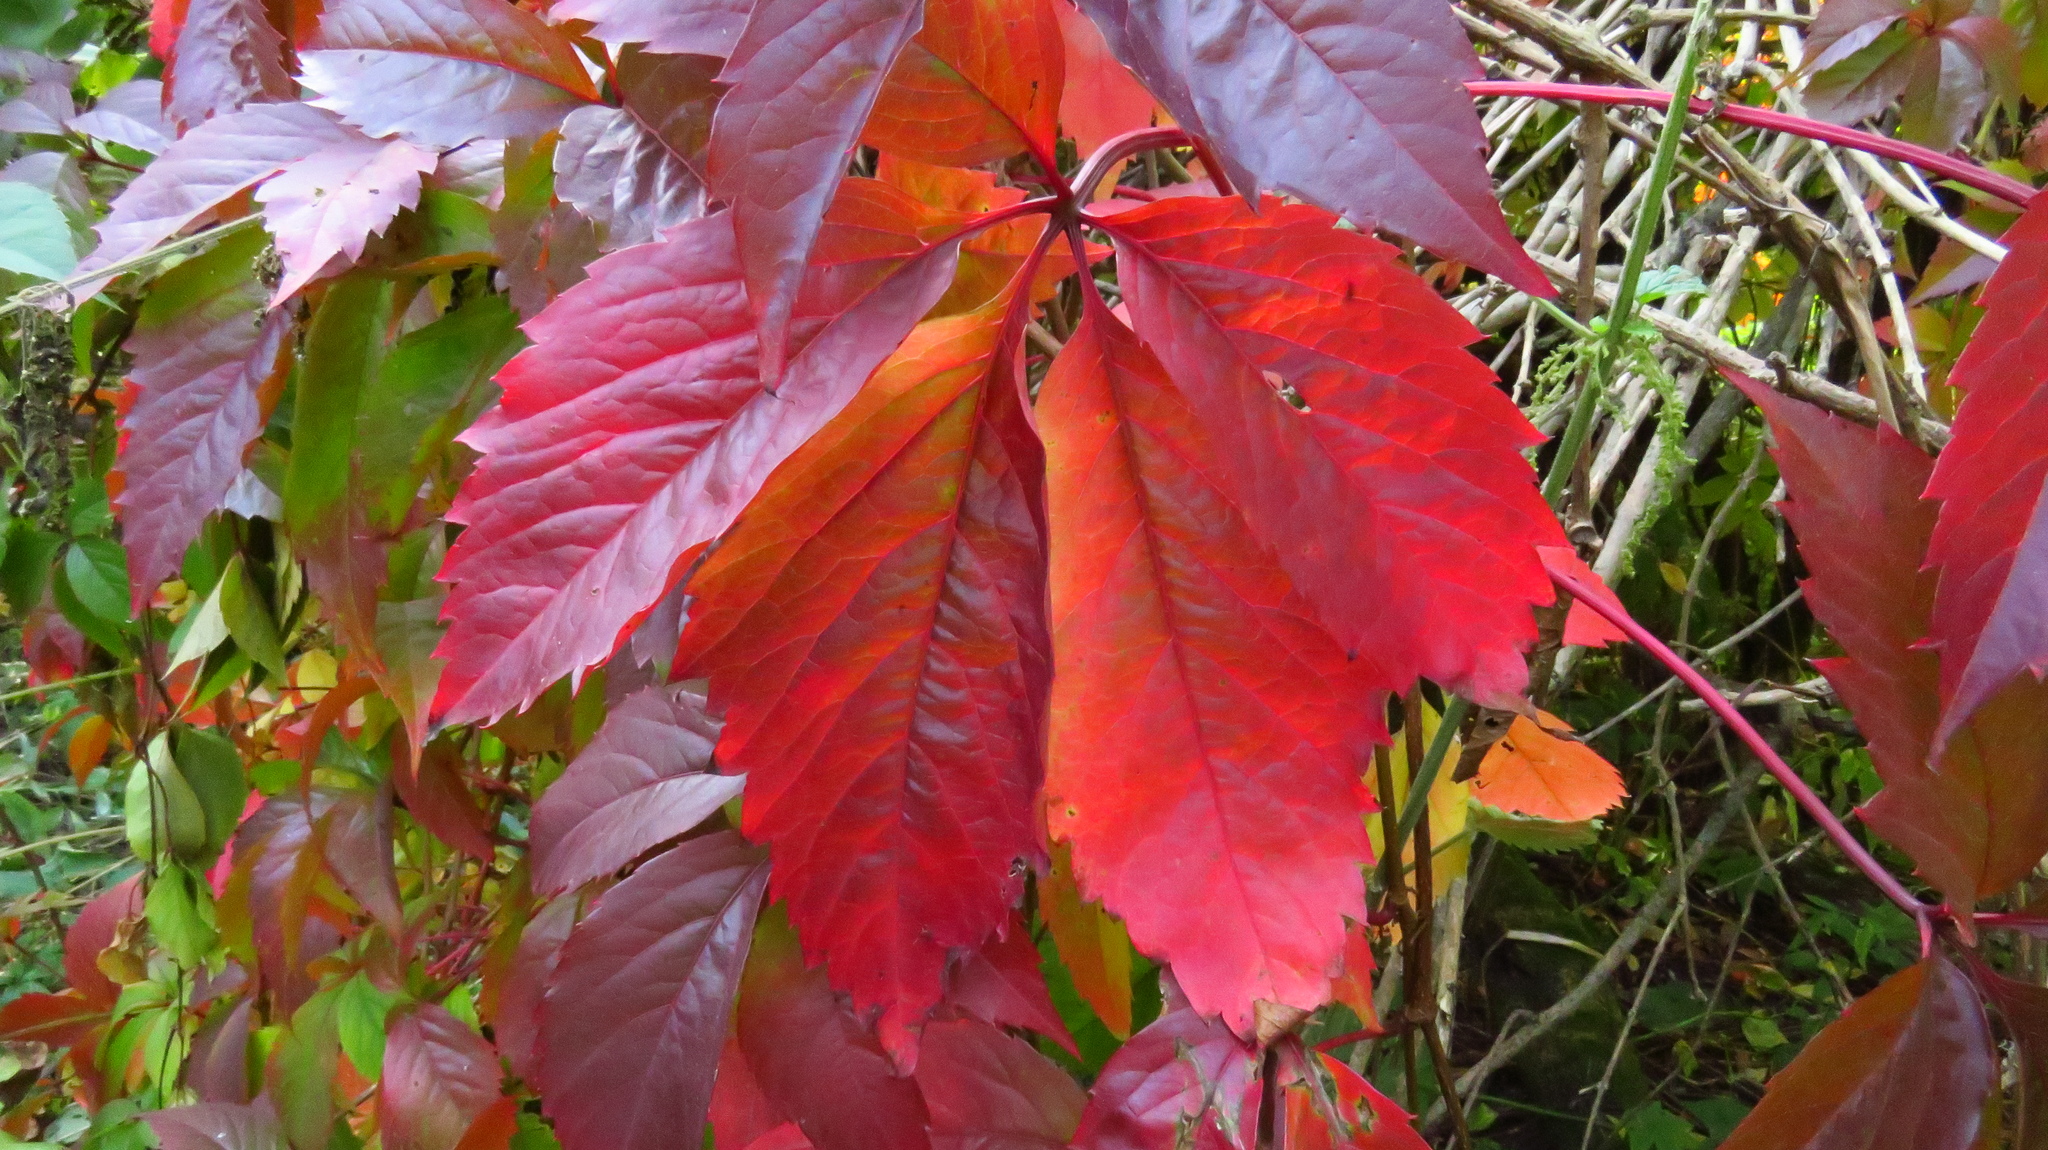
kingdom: Plantae
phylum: Tracheophyta
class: Magnoliopsida
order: Vitales
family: Vitaceae
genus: Parthenocissus
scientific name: Parthenocissus inserta
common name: False virginia-creeper
